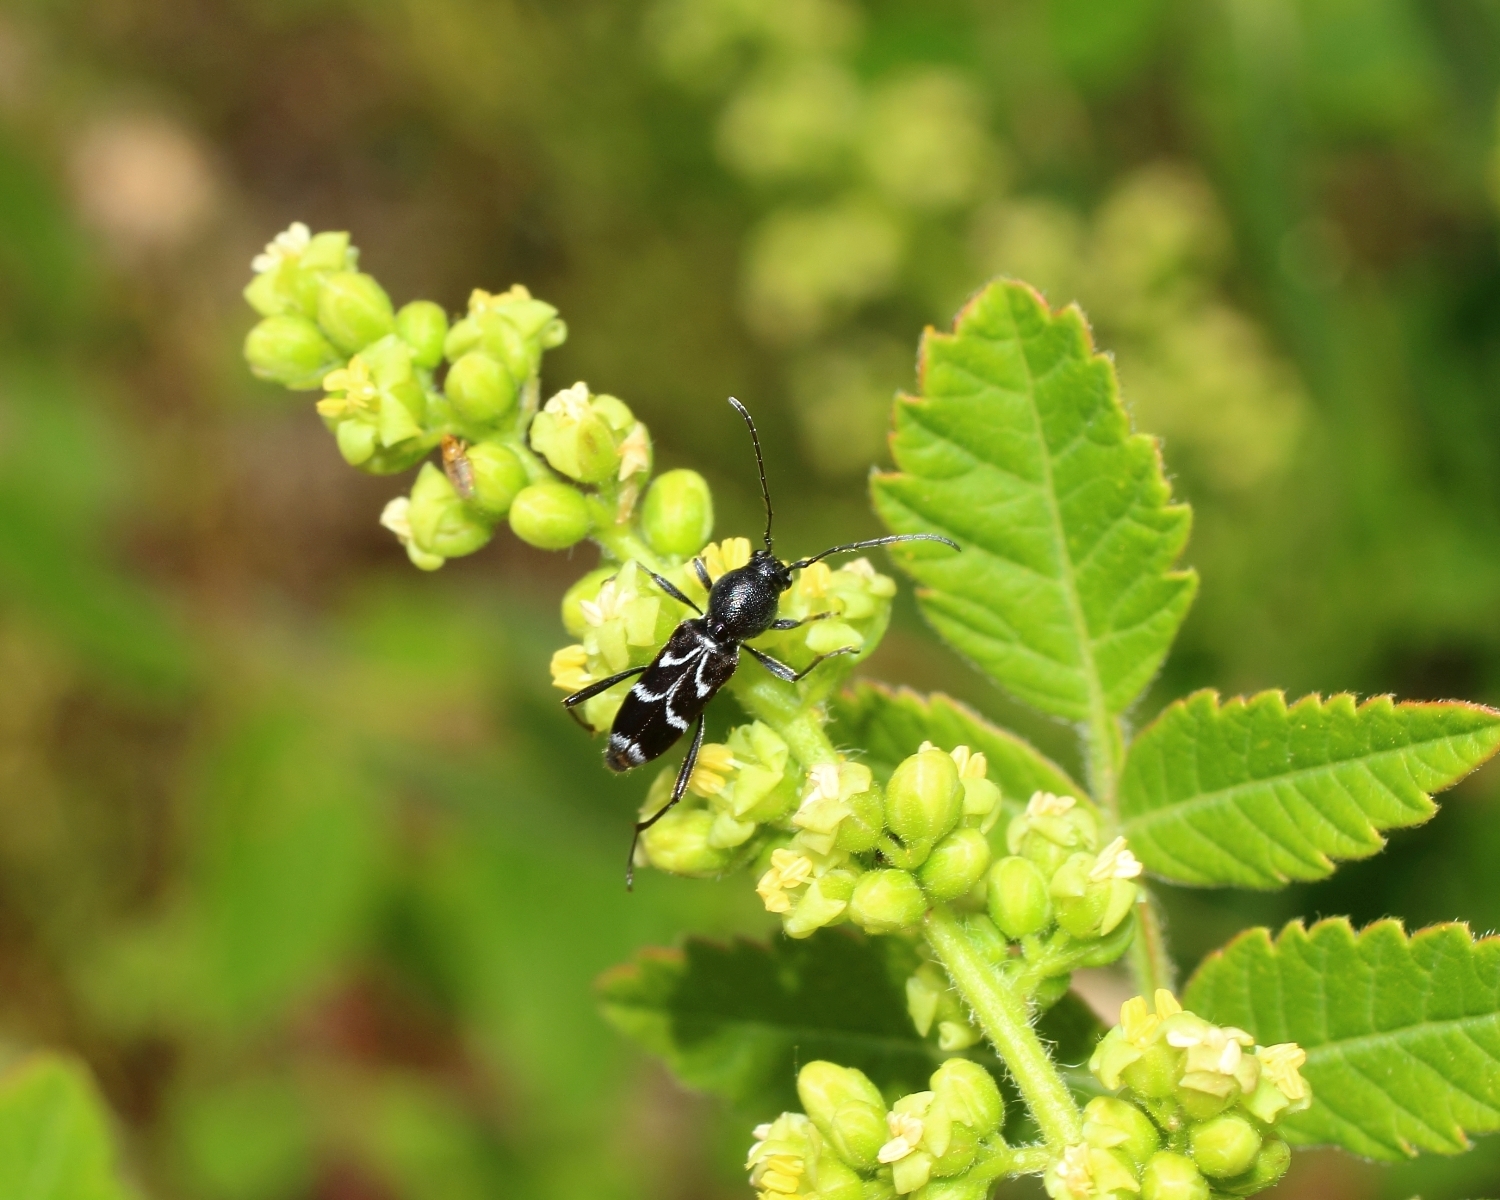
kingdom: Animalia
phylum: Arthropoda
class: Insecta
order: Coleoptera
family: Cerambycidae
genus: Chlorophorus
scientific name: Chlorophorus sartor
